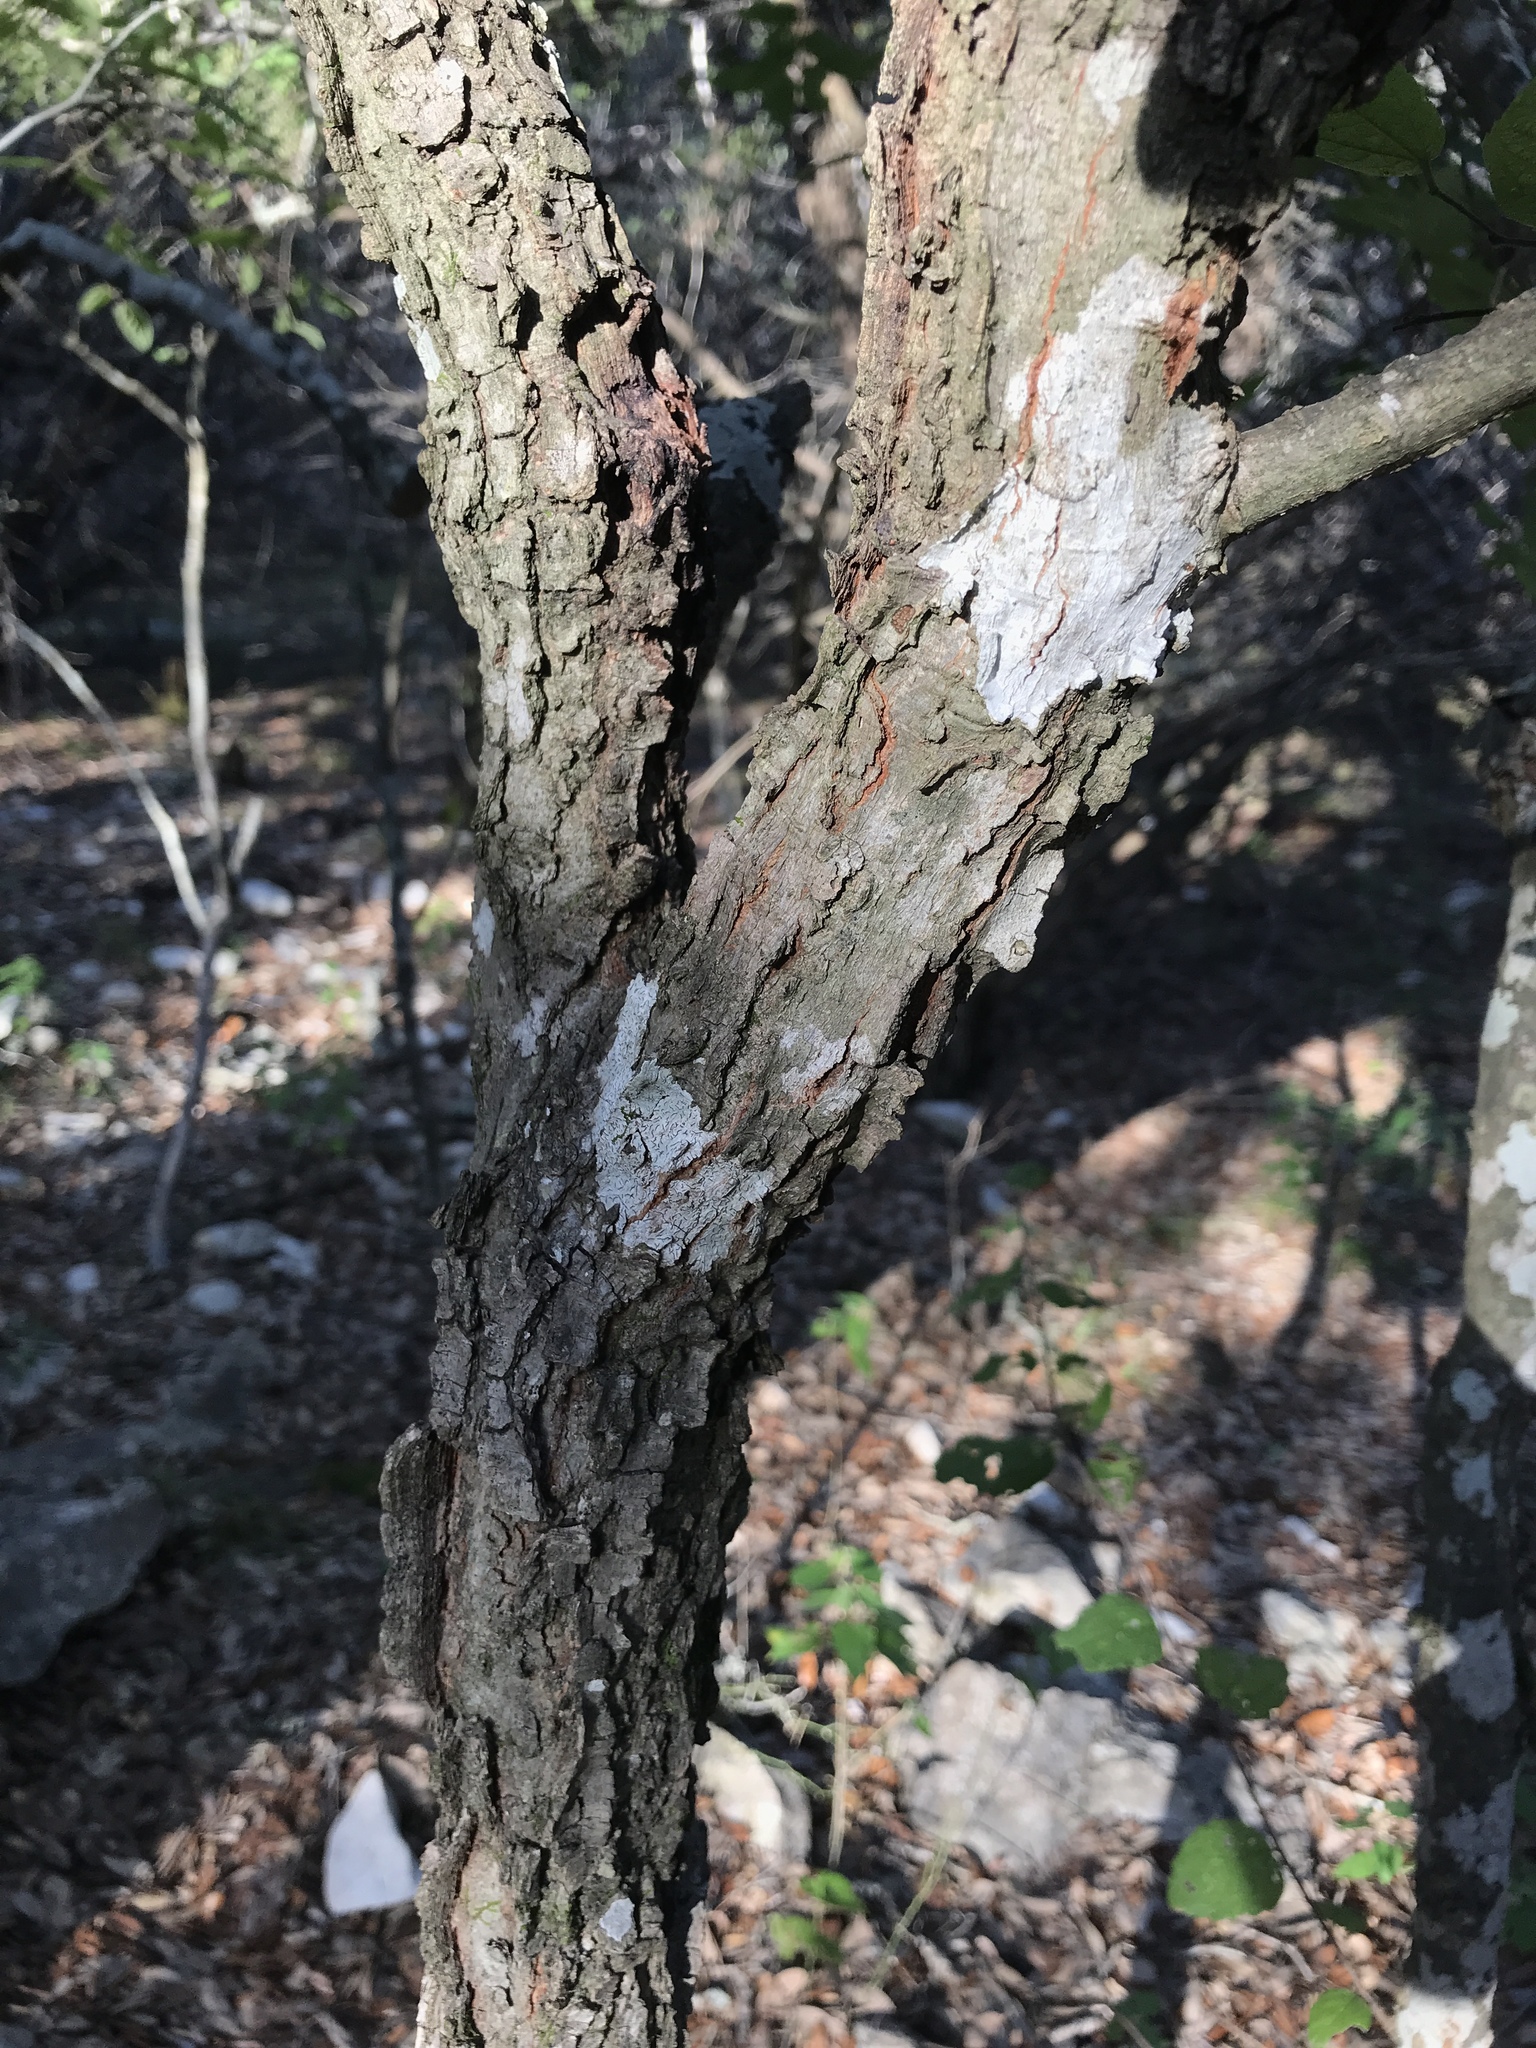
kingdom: Plantae
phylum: Tracheophyta
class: Magnoliopsida
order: Rosales
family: Cannabaceae
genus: Celtis
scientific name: Celtis reticulata
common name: Netleaf hackberry
